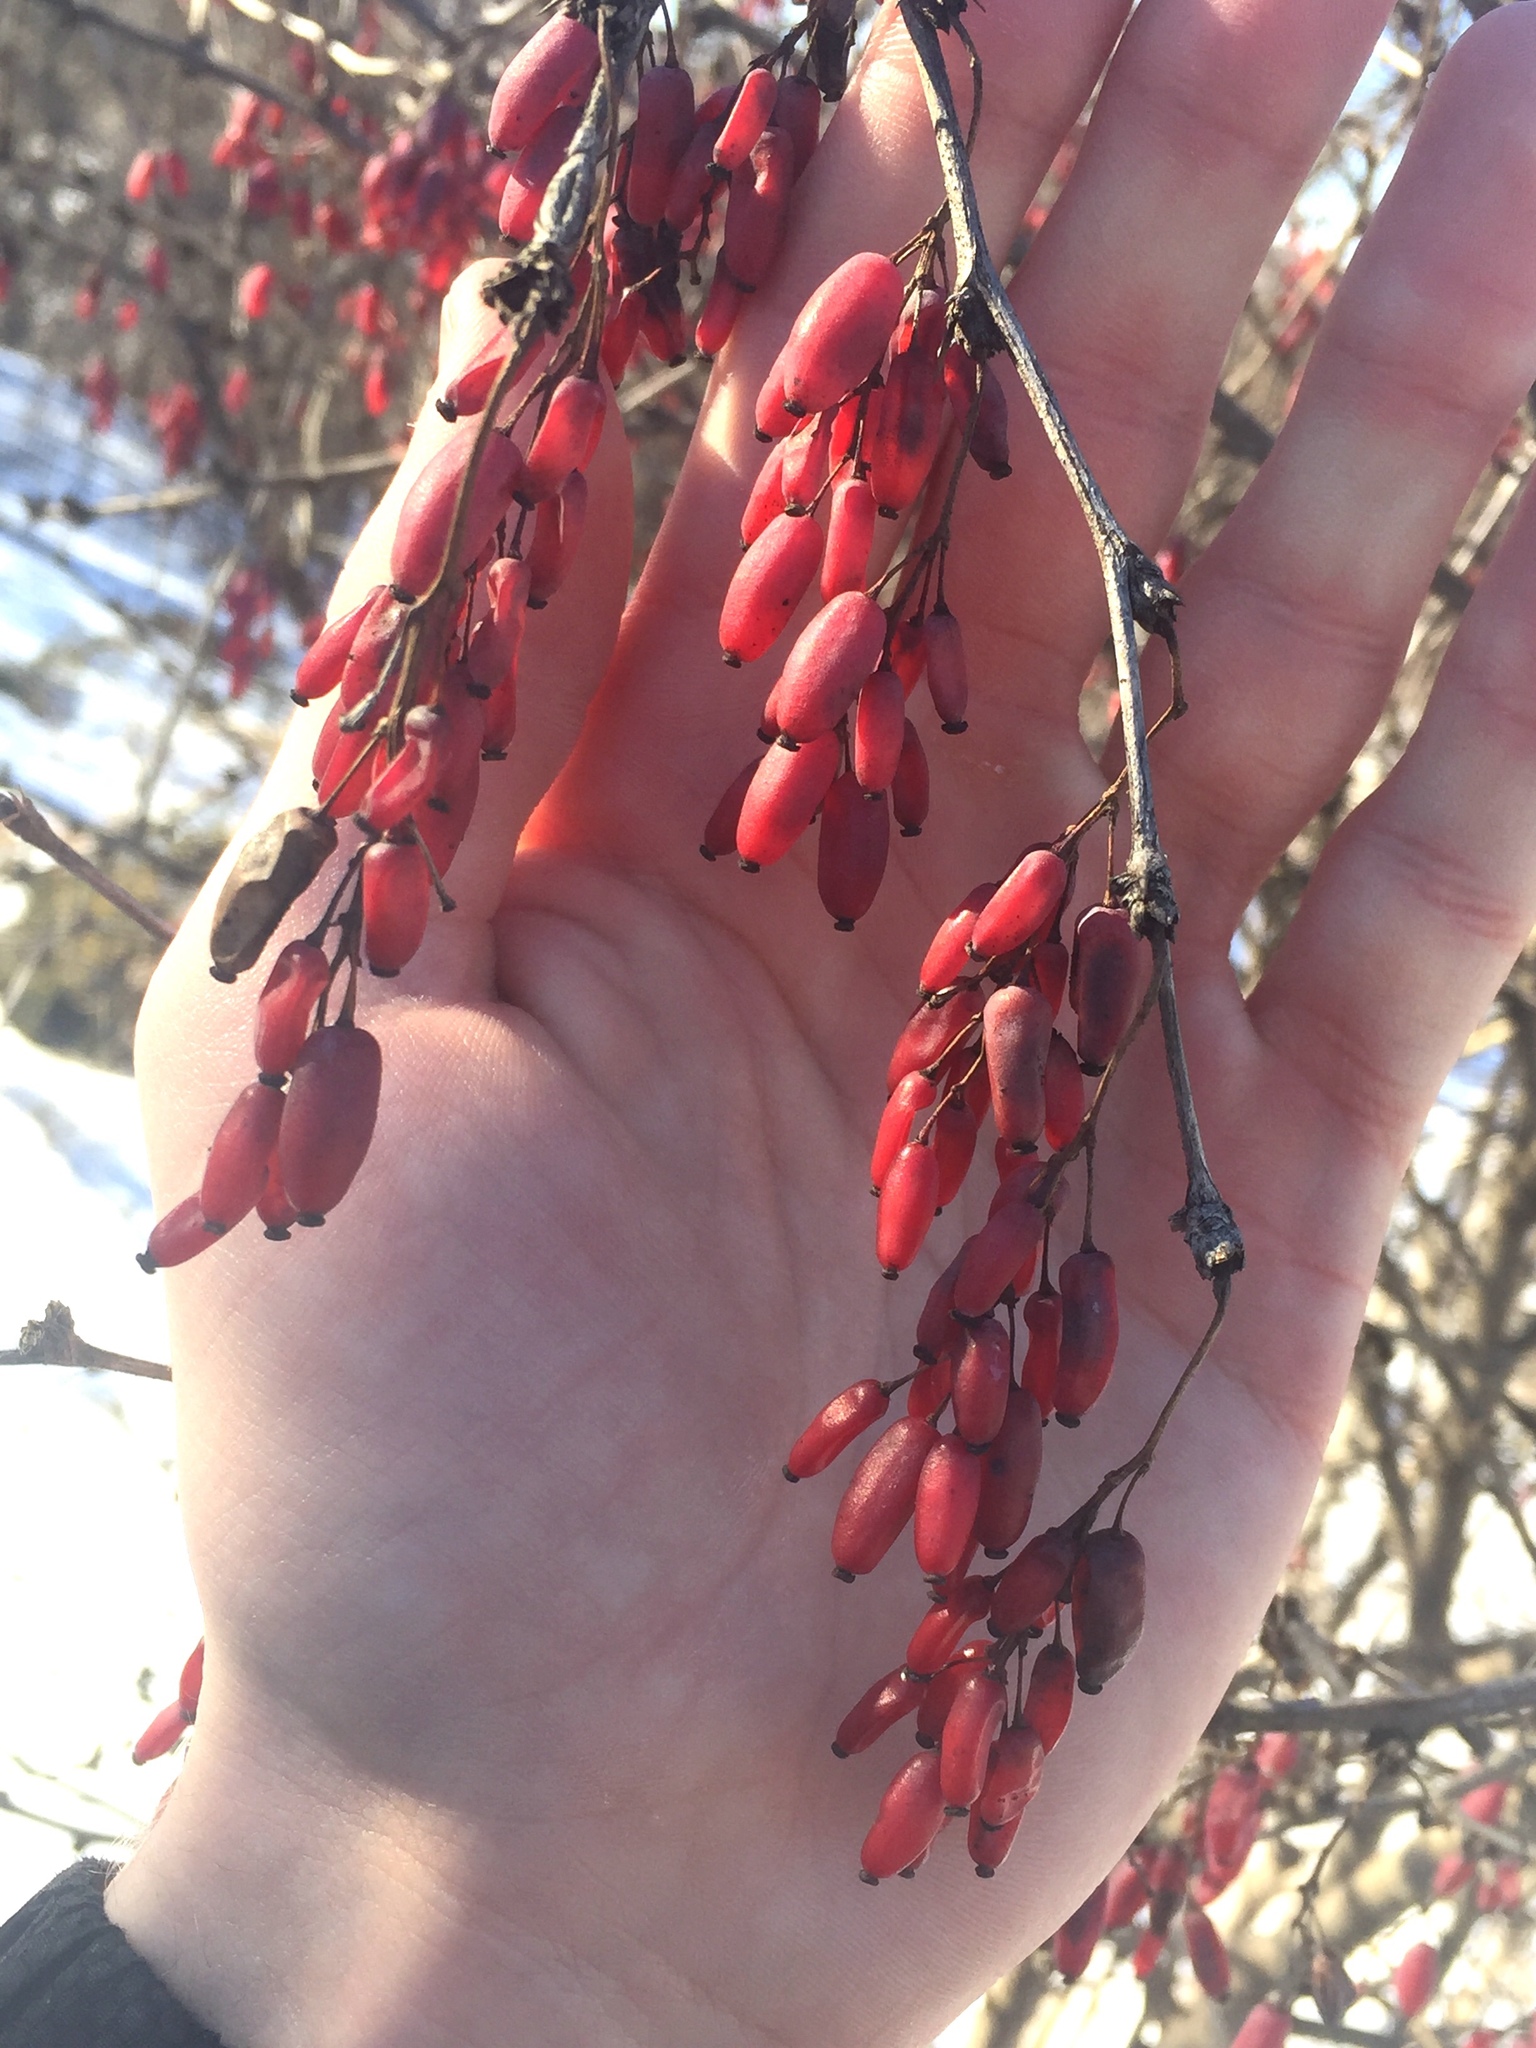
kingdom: Plantae
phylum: Tracheophyta
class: Magnoliopsida
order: Ranunculales
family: Berberidaceae
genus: Berberis
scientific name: Berberis vulgaris
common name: Barberry
